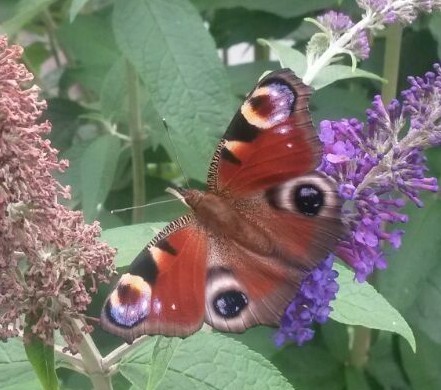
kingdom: Animalia
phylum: Arthropoda
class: Insecta
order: Lepidoptera
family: Nymphalidae
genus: Aglais
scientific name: Aglais io
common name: Peacock
